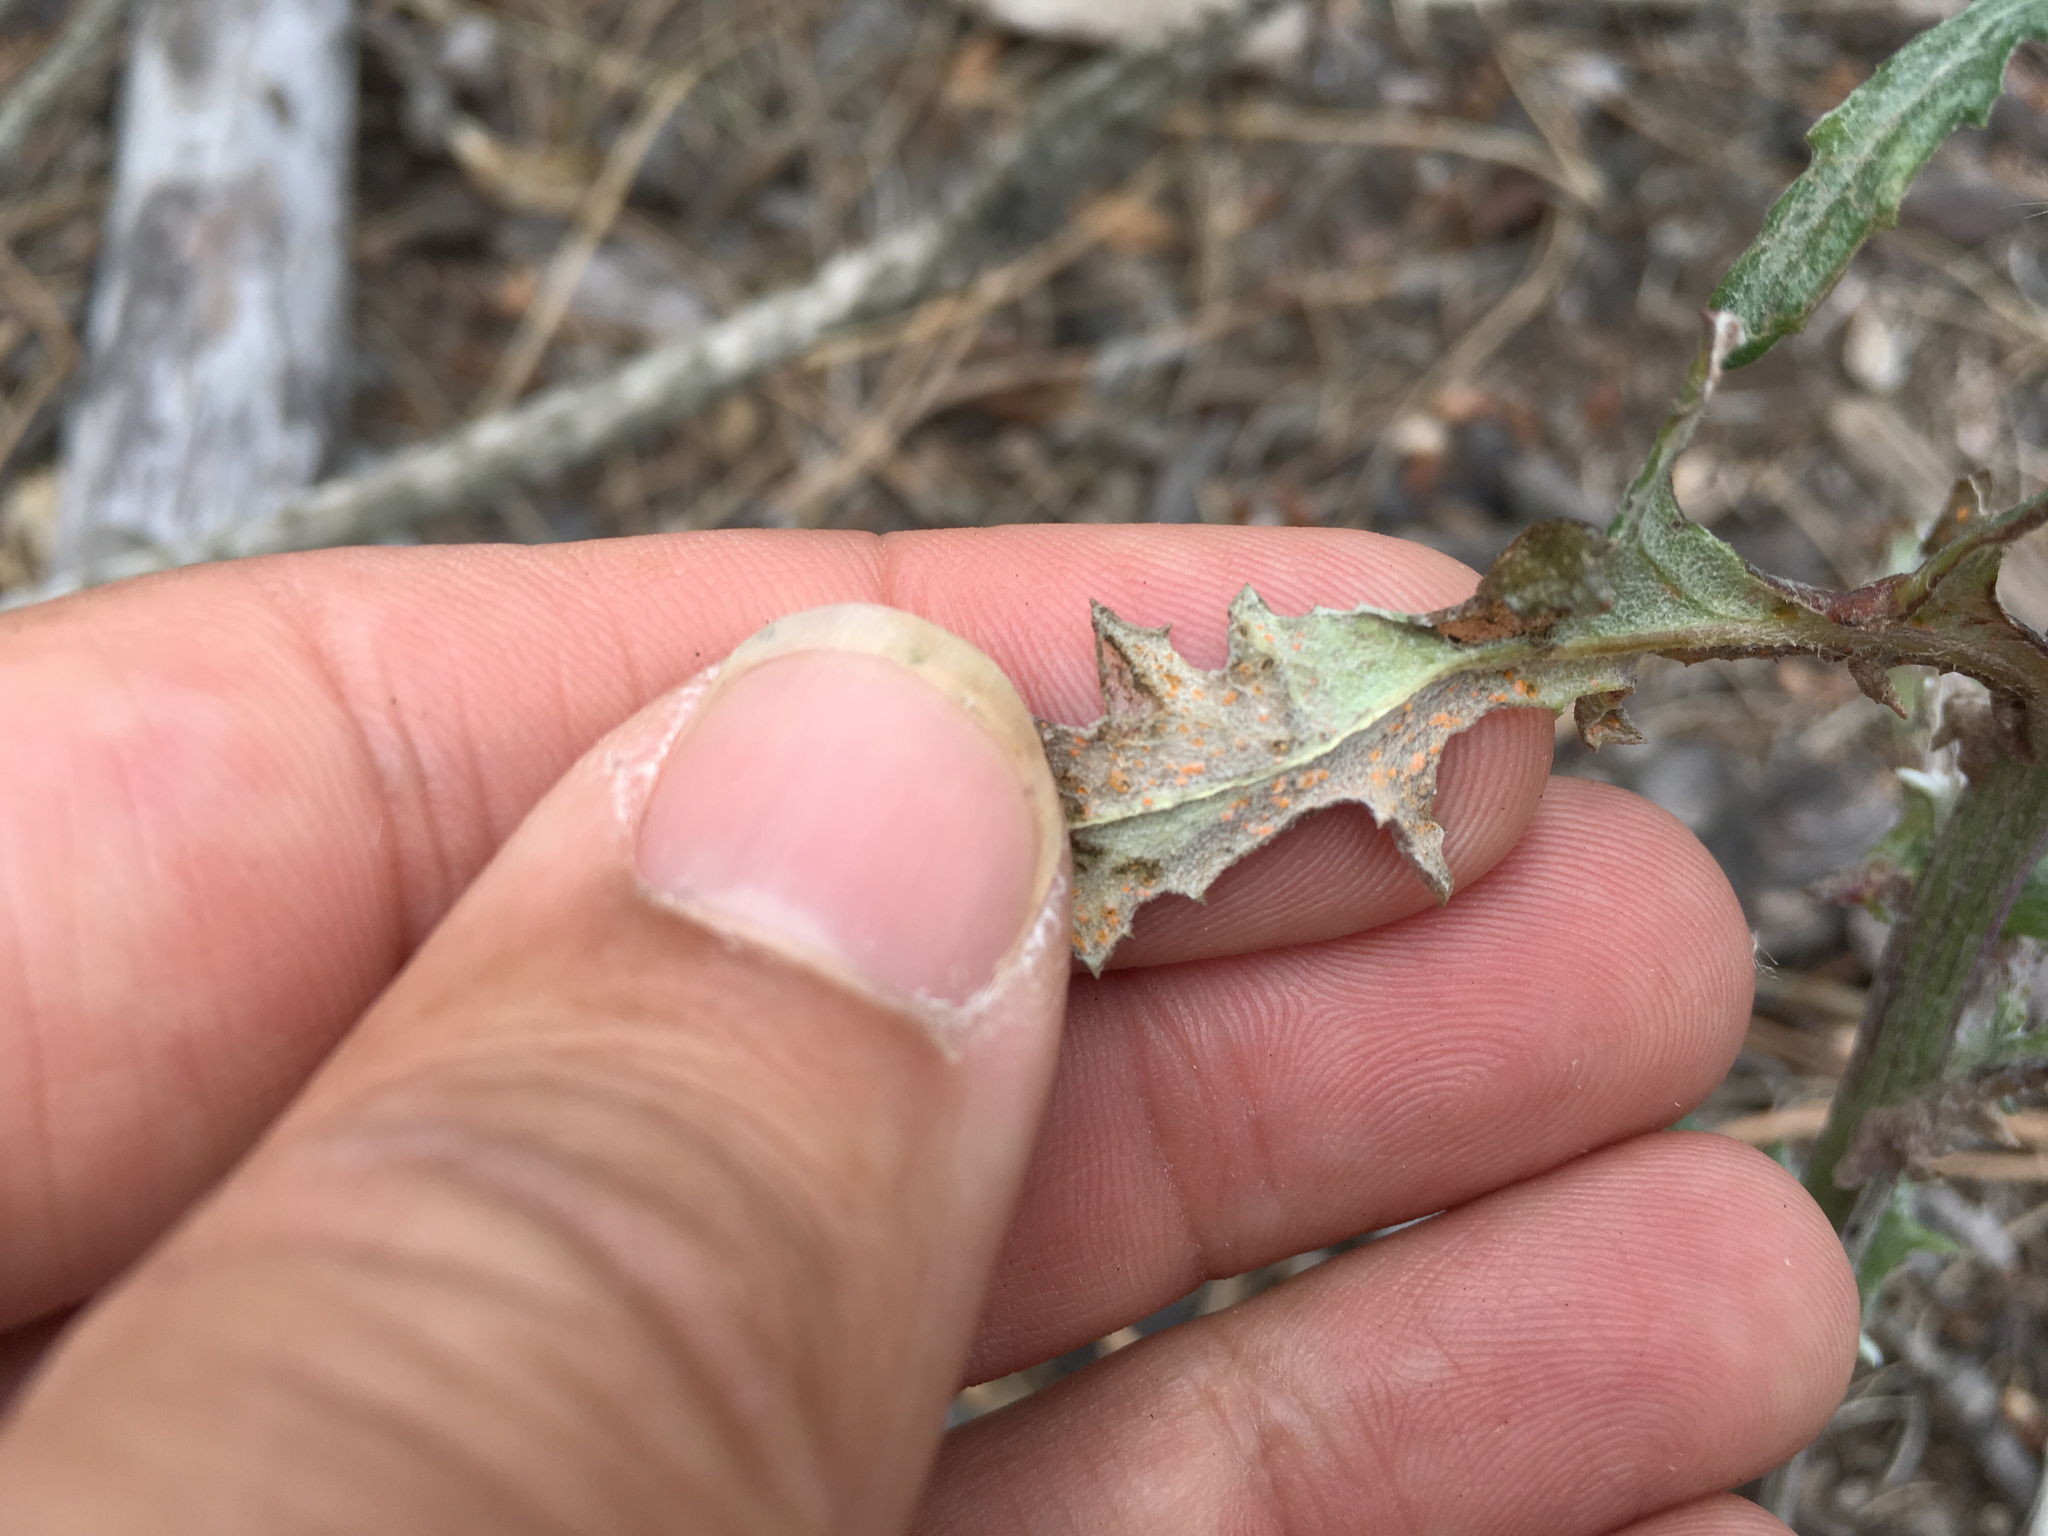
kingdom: Fungi
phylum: Basidiomycota
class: Pucciniomycetes
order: Pucciniales
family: Coleosporiaceae
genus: Coleosporium
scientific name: Coleosporium tussilaginis
